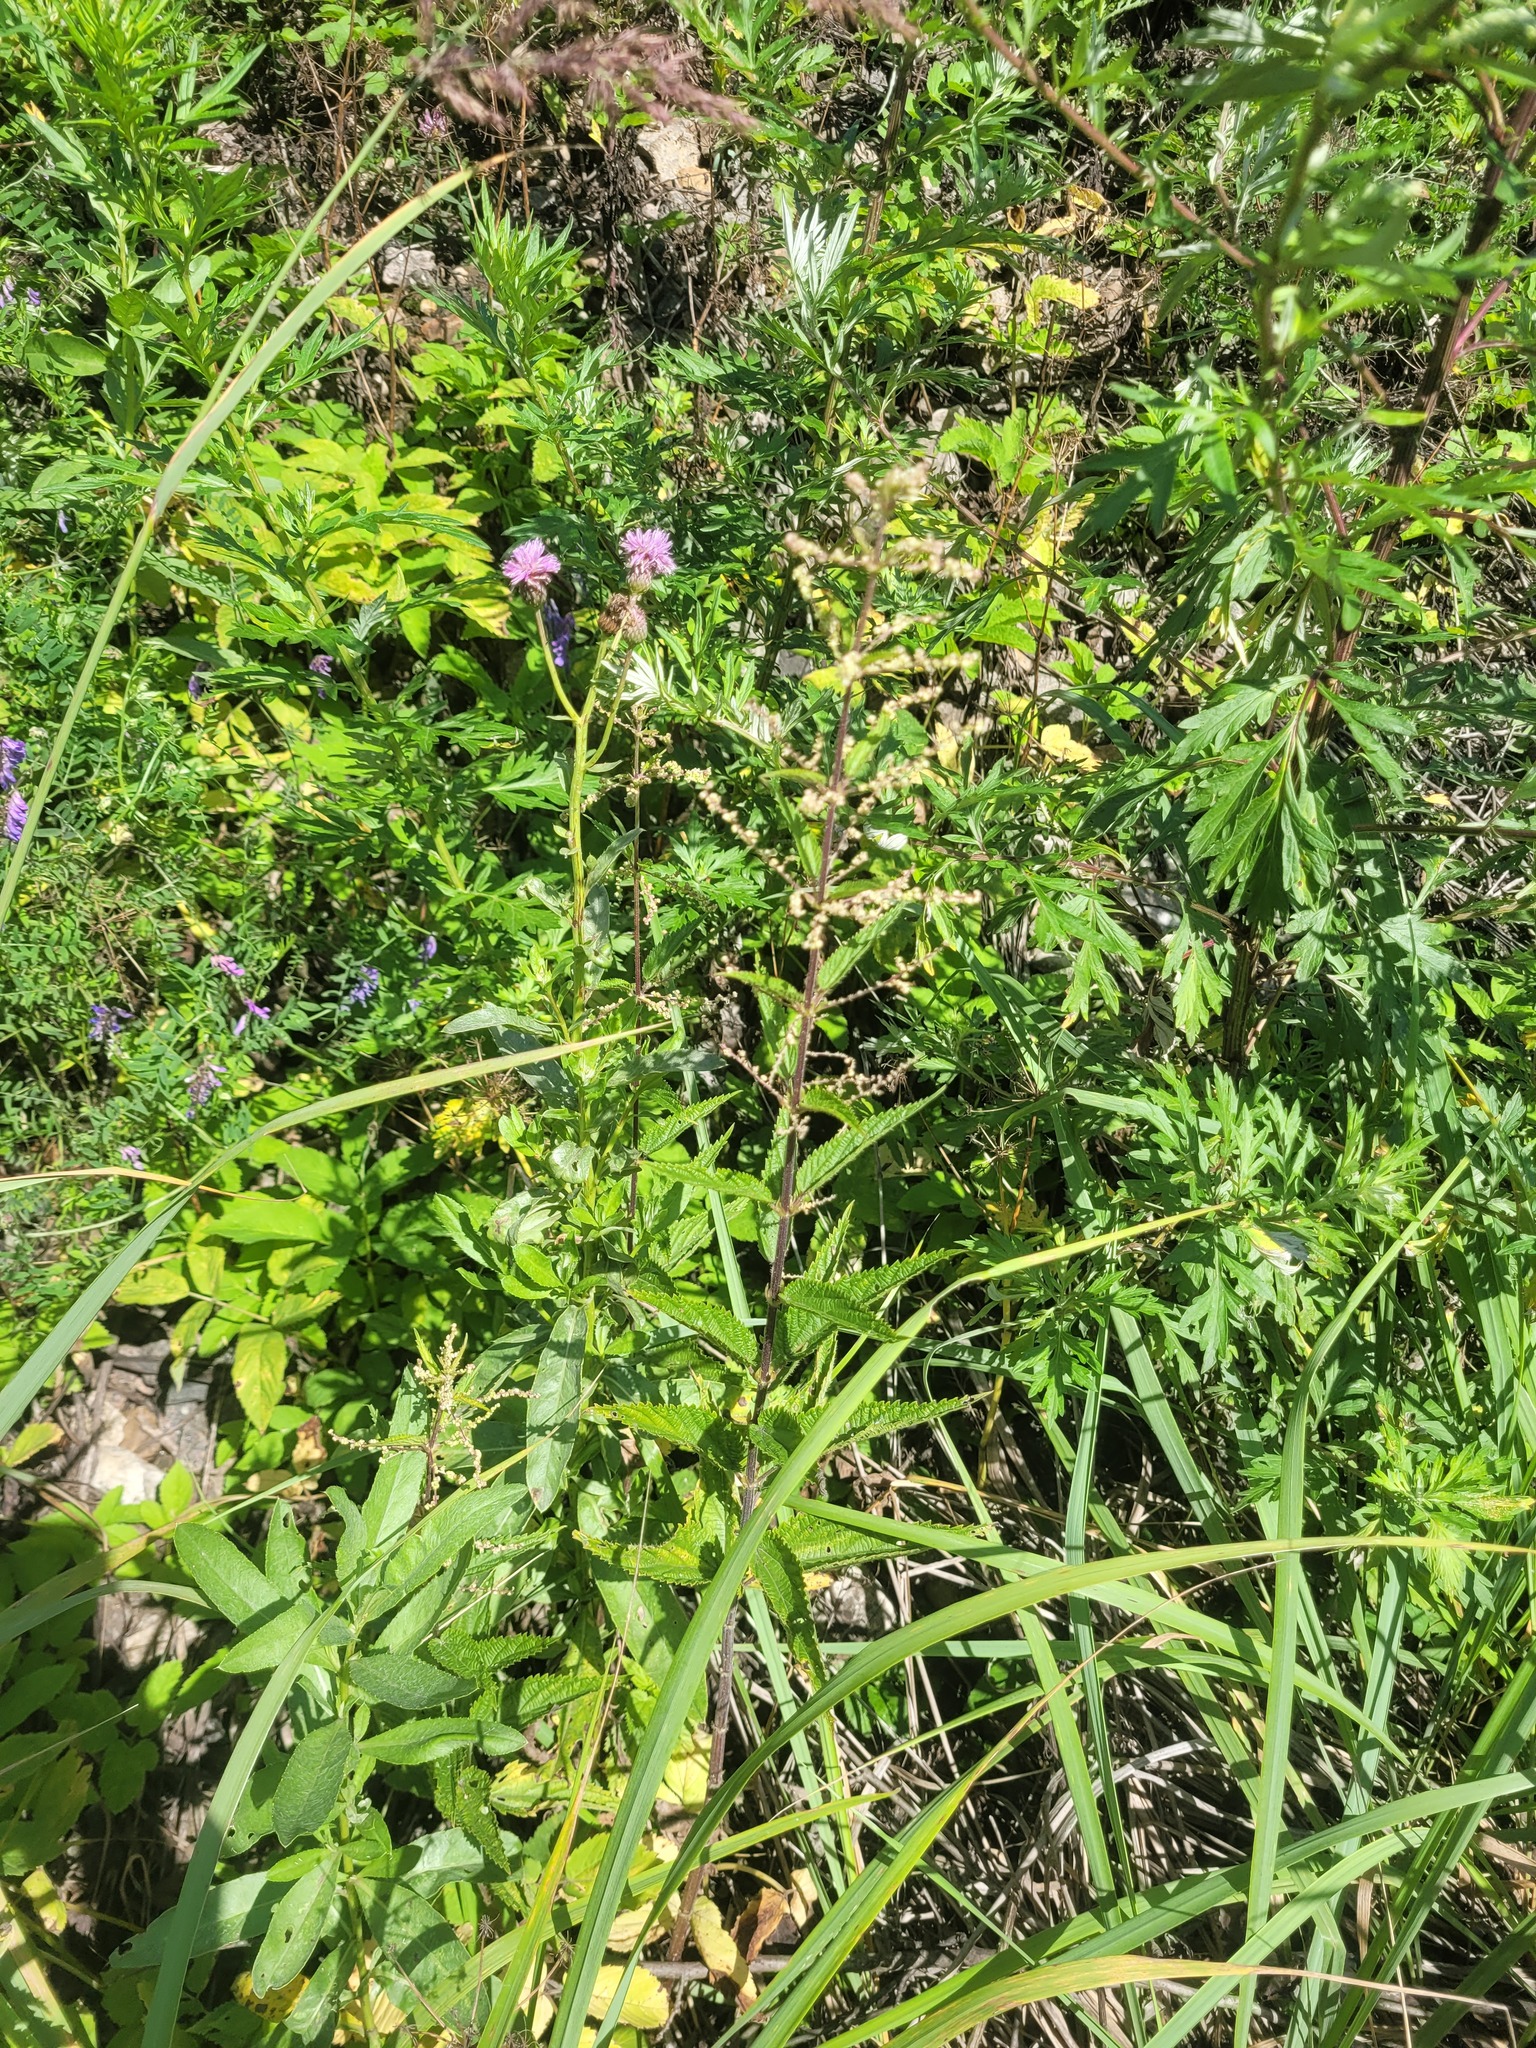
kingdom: Plantae
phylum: Tracheophyta
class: Magnoliopsida
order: Rosales
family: Urticaceae
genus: Urtica
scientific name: Urtica dioica
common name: Common nettle
